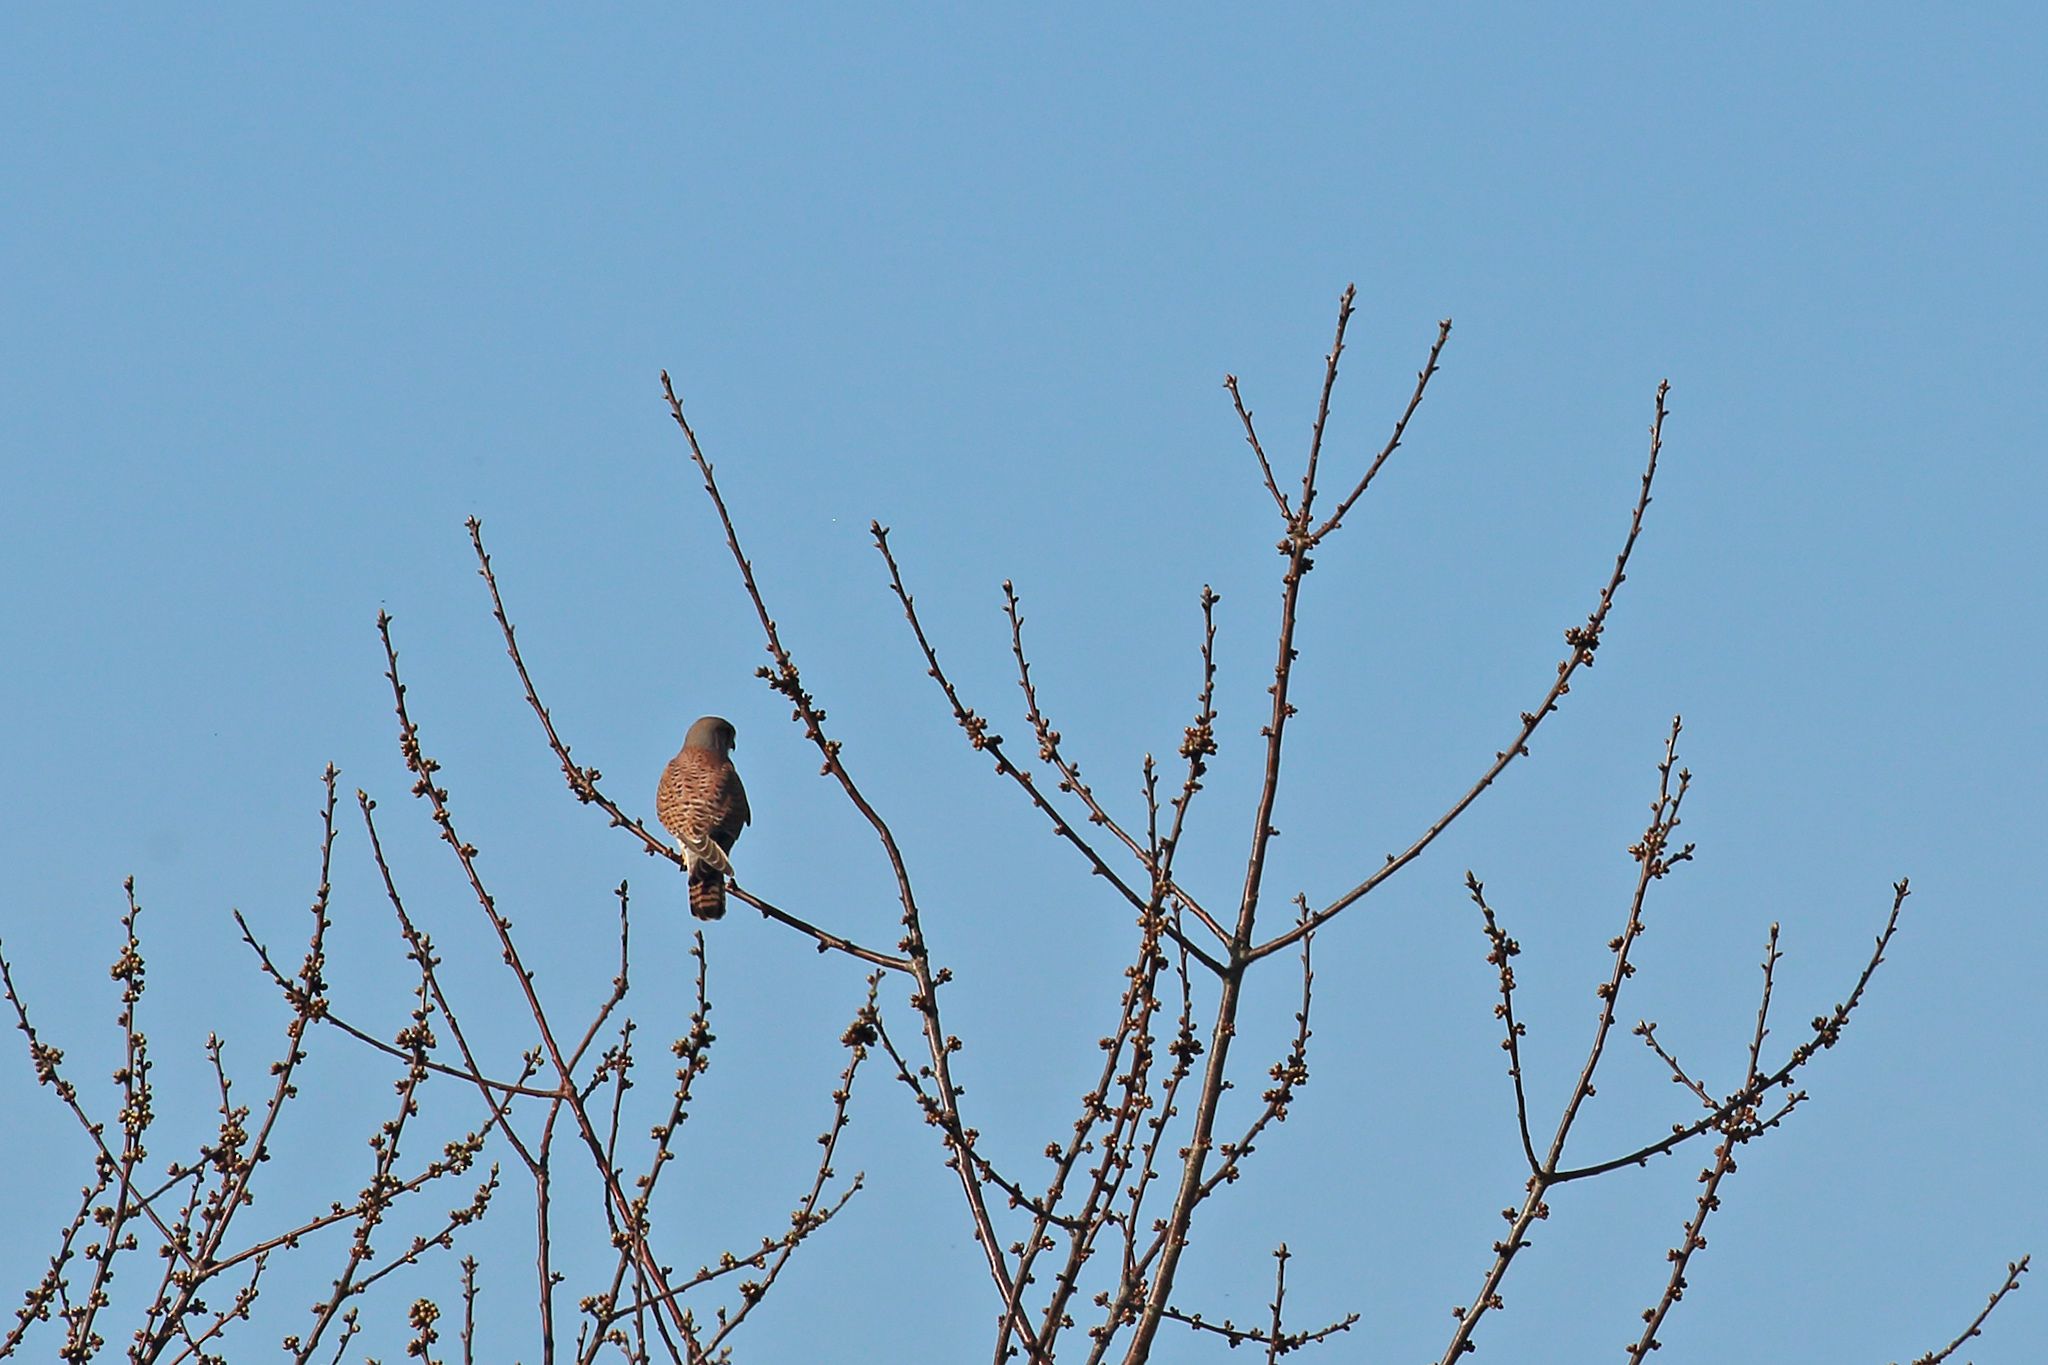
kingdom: Animalia
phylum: Chordata
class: Aves
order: Falconiformes
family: Falconidae
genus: Falco
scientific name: Falco tinnunculus
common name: Common kestrel
